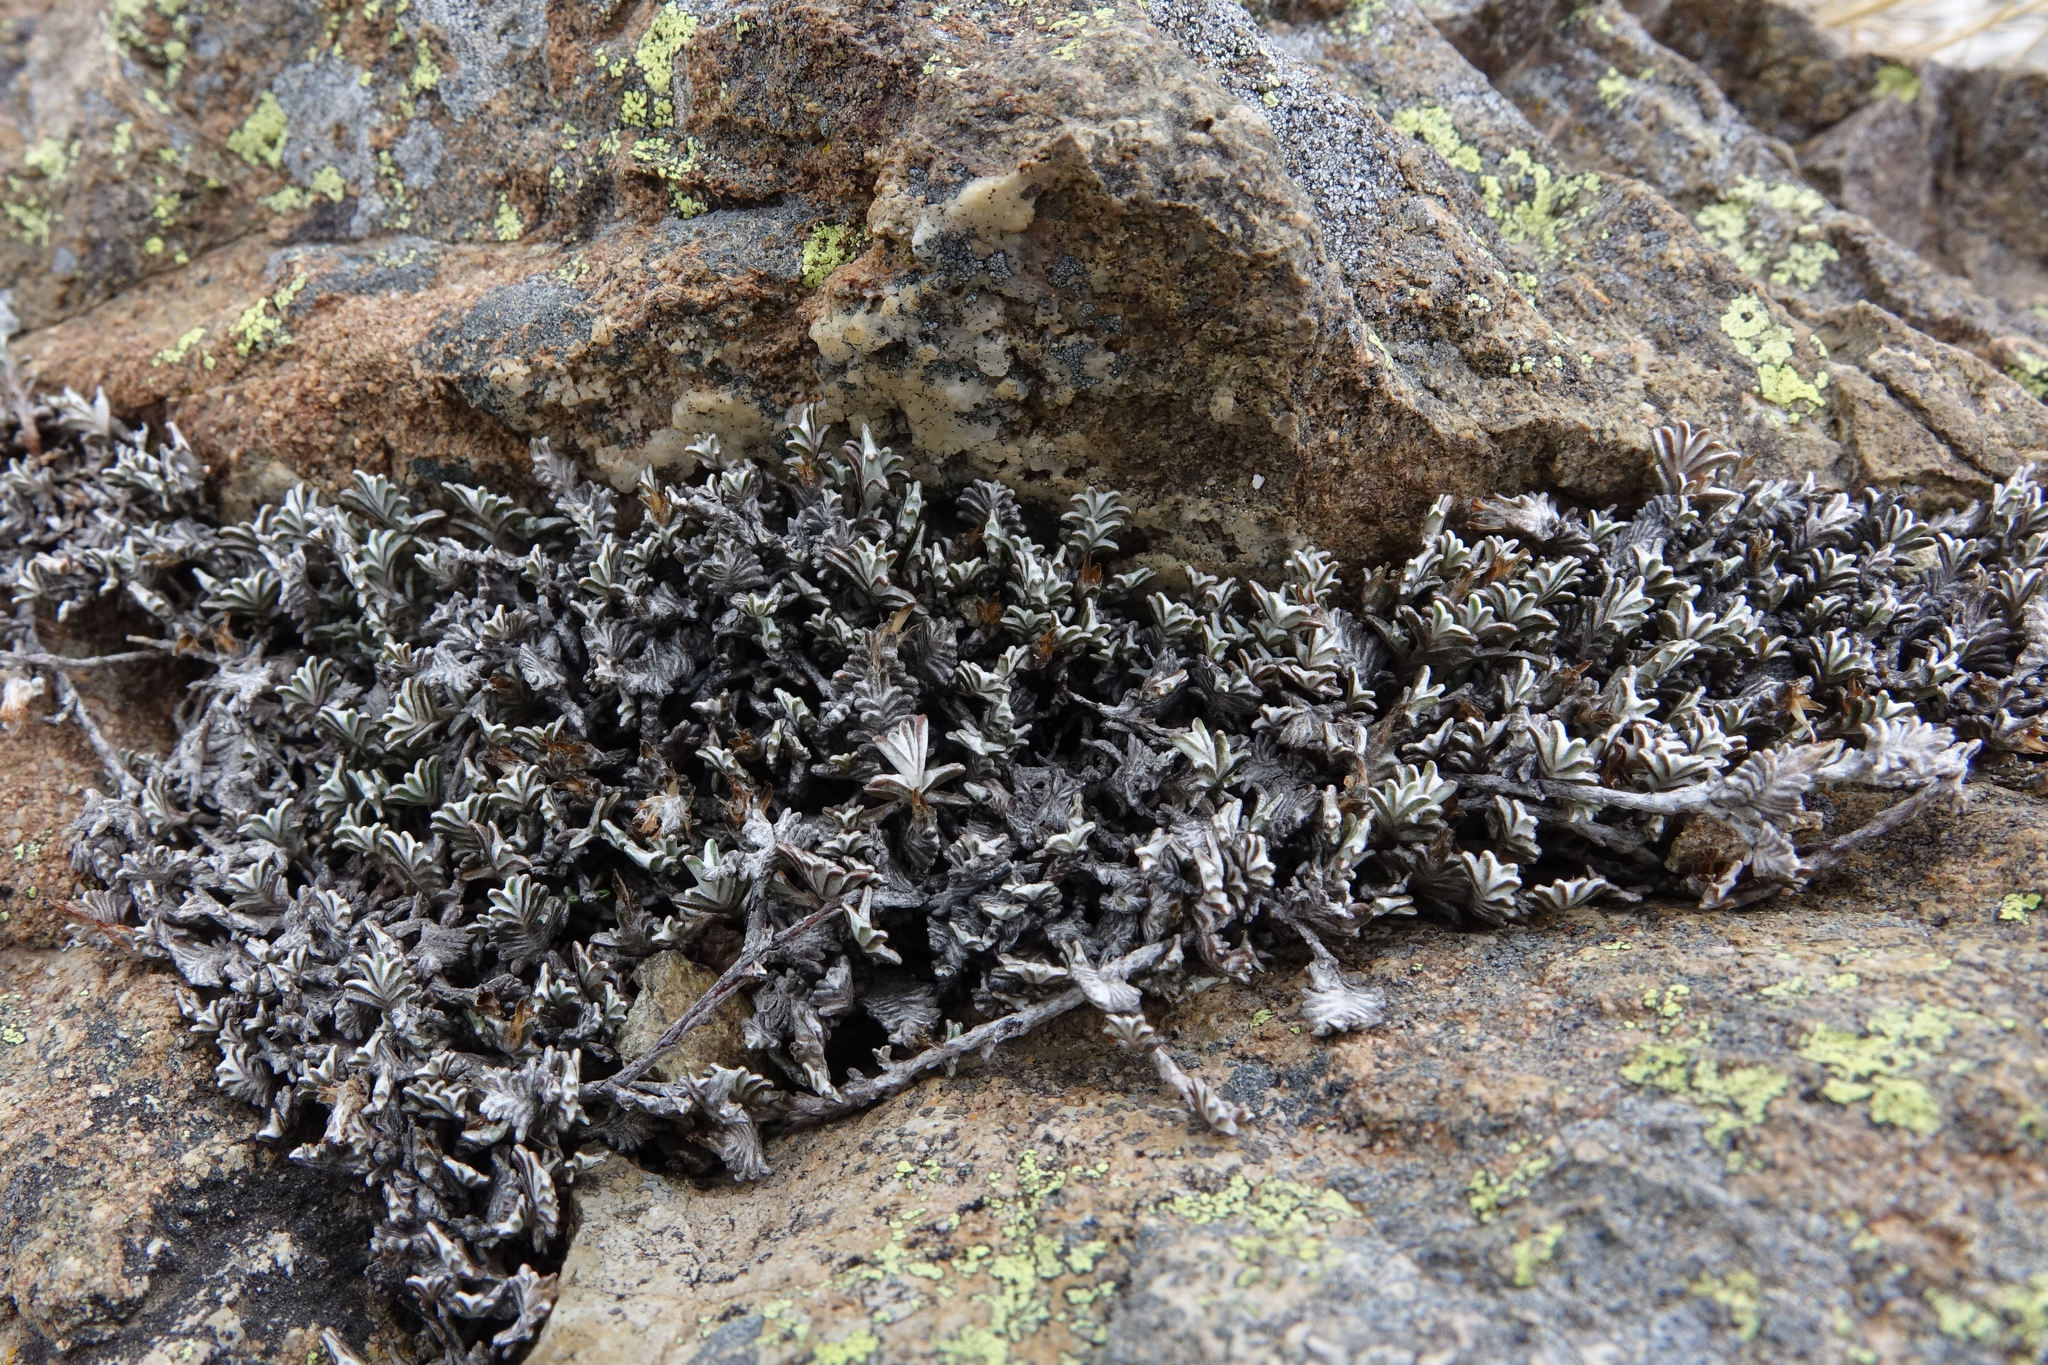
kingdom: Plantae
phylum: Tracheophyta
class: Magnoliopsida
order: Asterales
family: Asteraceae
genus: Raoulia
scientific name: Raoulia monroi
